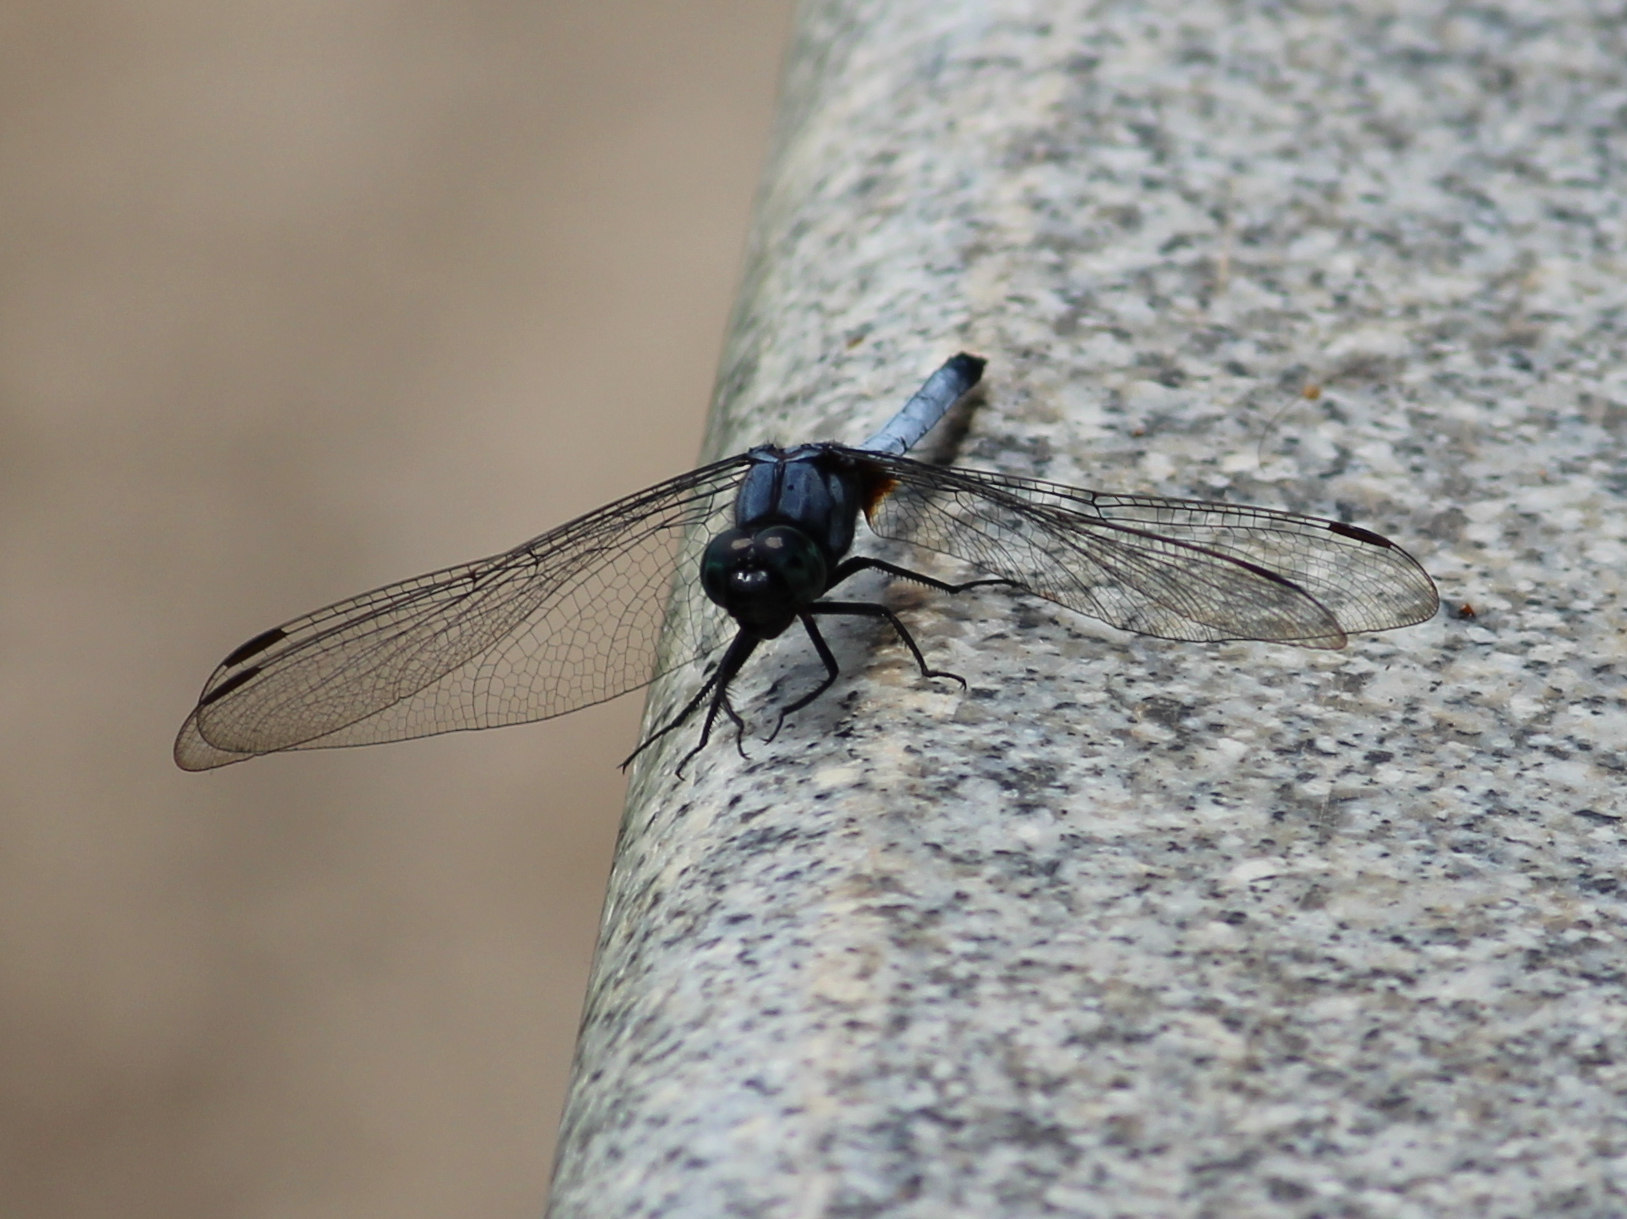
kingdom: Animalia
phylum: Arthropoda
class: Insecta
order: Odonata
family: Libellulidae
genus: Orthetrum
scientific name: Orthetrum glaucum
